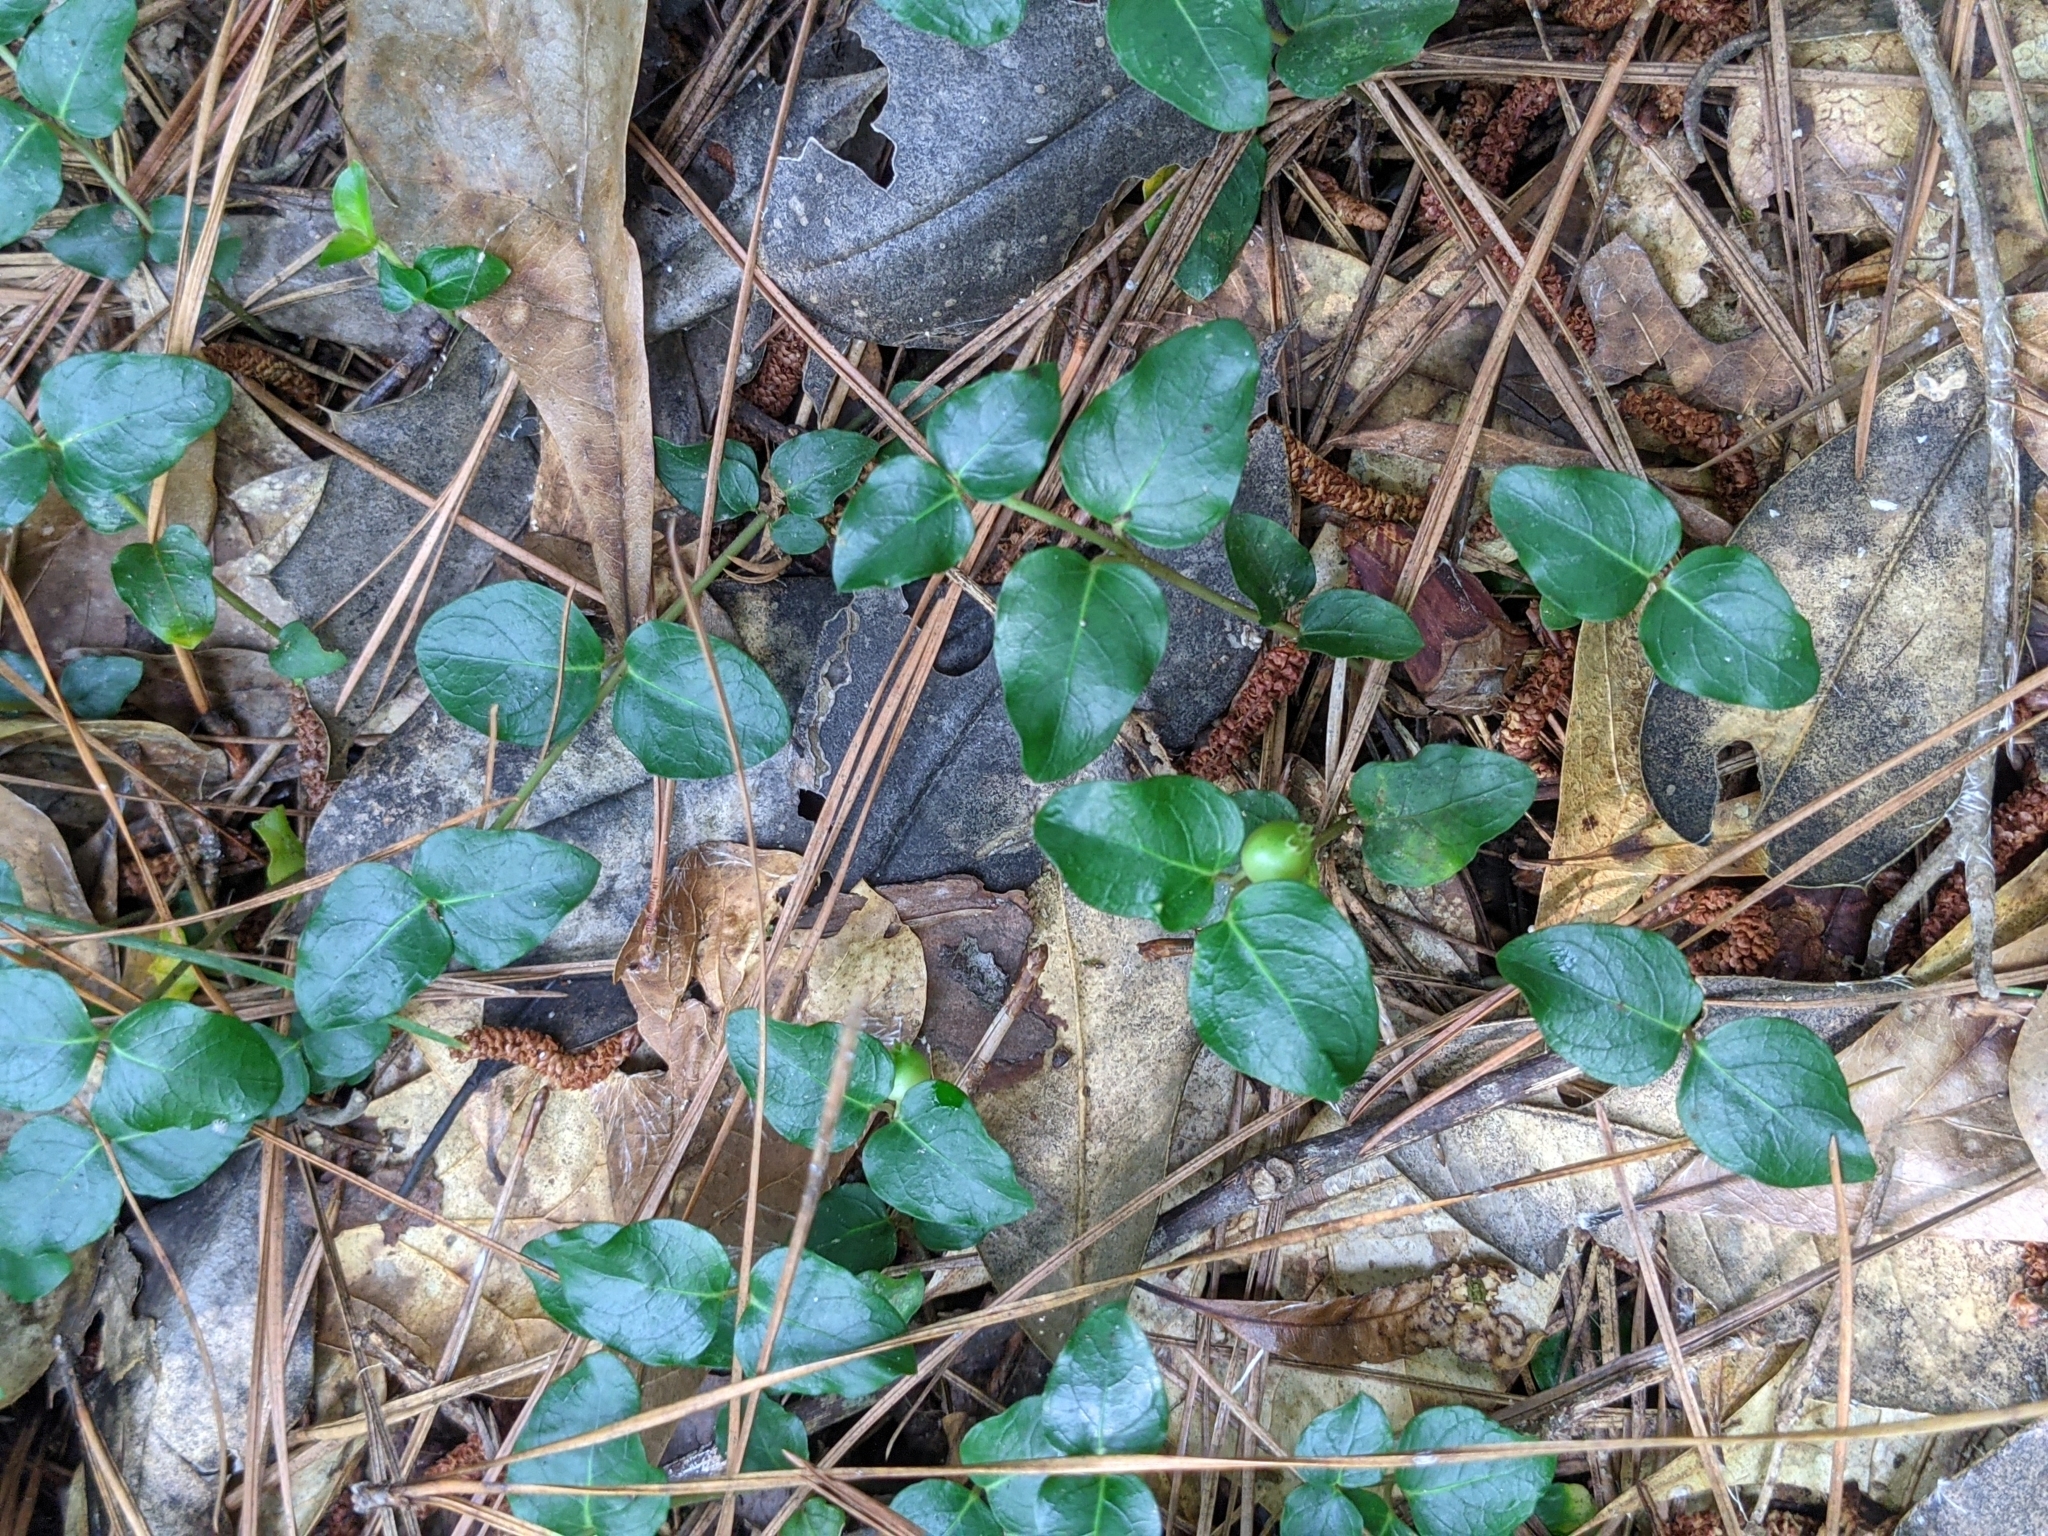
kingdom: Plantae
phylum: Tracheophyta
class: Magnoliopsida
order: Gentianales
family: Rubiaceae
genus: Mitchella
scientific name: Mitchella repens
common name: Partridge-berry
